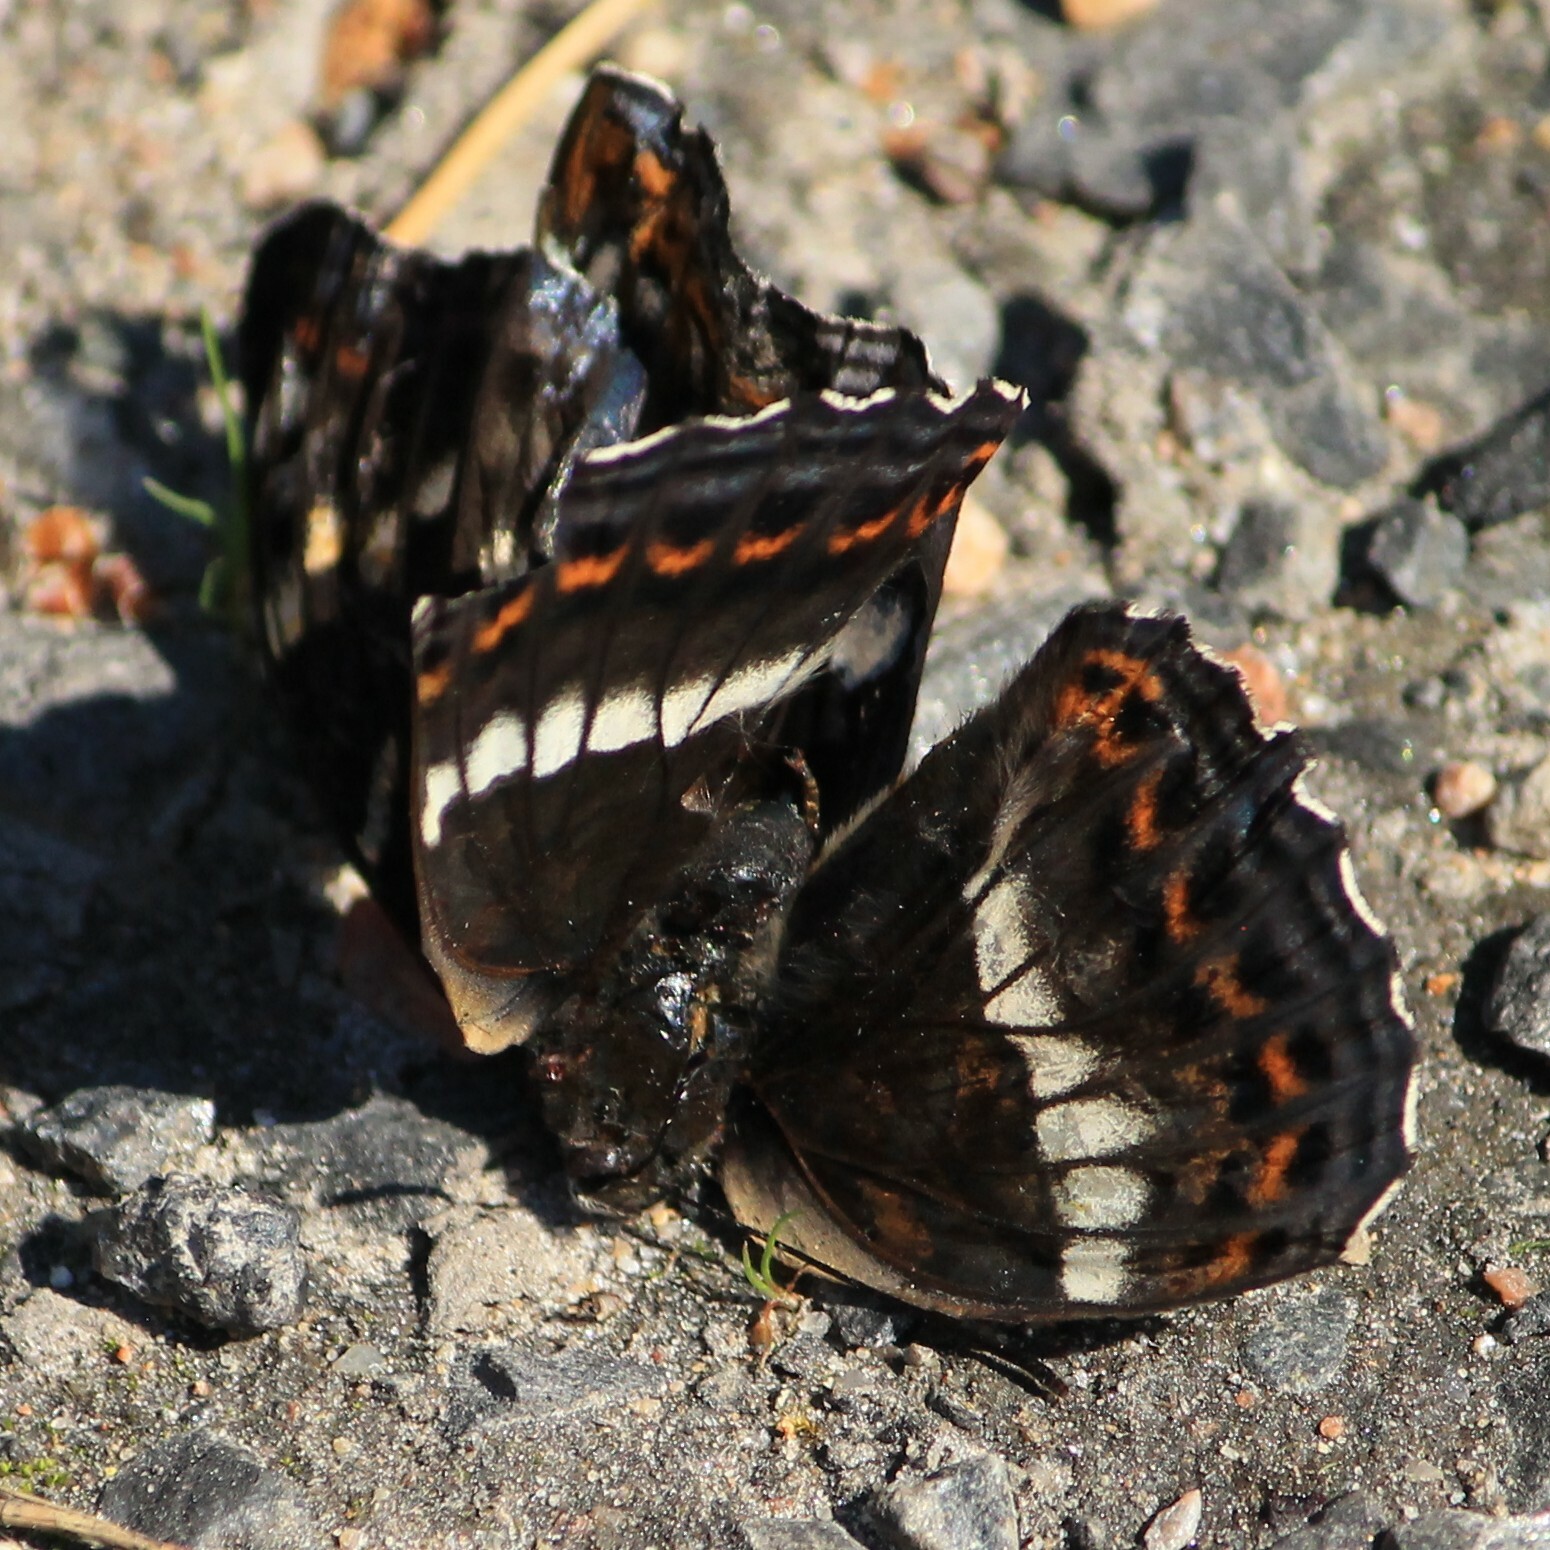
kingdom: Animalia
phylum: Arthropoda
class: Insecta
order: Lepidoptera
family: Nymphalidae
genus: Limenitis
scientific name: Limenitis populi
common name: Poplar admiral
